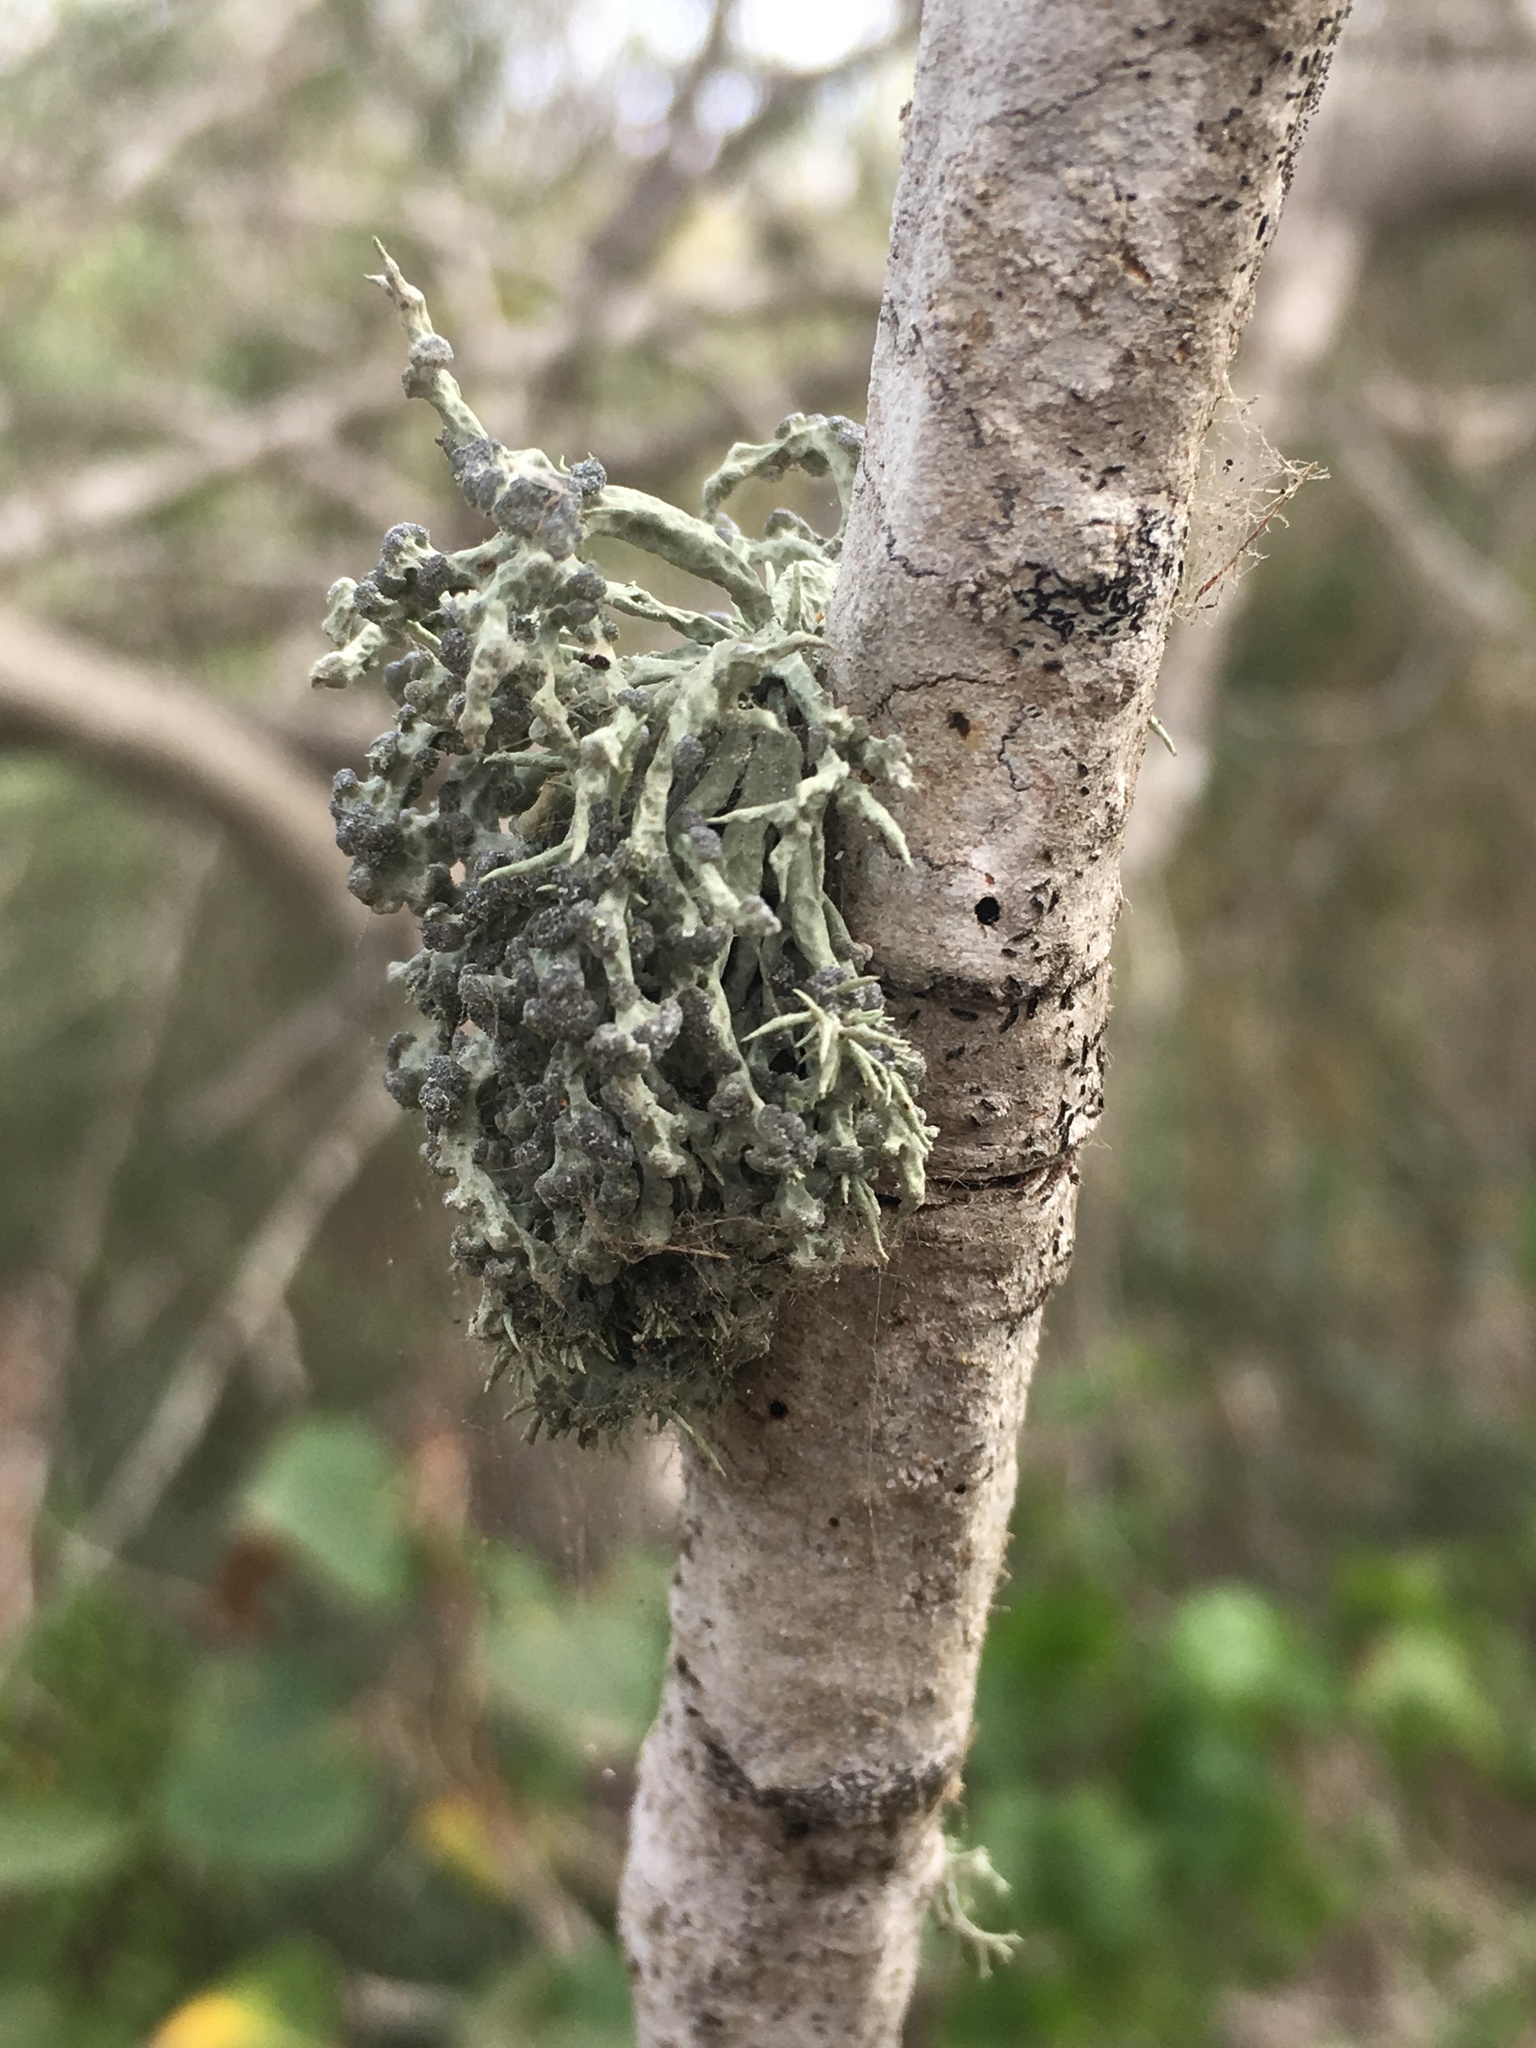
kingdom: Fungi
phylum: Ascomycota
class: Lecanoromycetes
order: Lecanorales
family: Ramalinaceae
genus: Niebla
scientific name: Niebla cephalota
